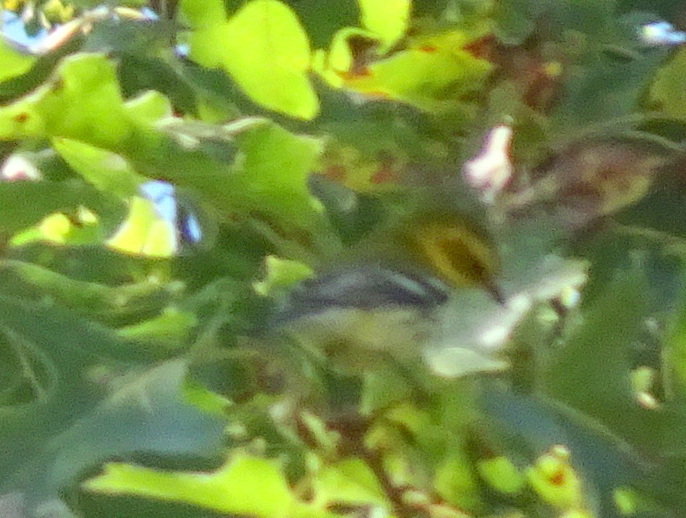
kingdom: Animalia
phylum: Chordata
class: Aves
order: Passeriformes
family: Parulidae
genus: Setophaga
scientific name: Setophaga virens
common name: Black-throated green warbler
